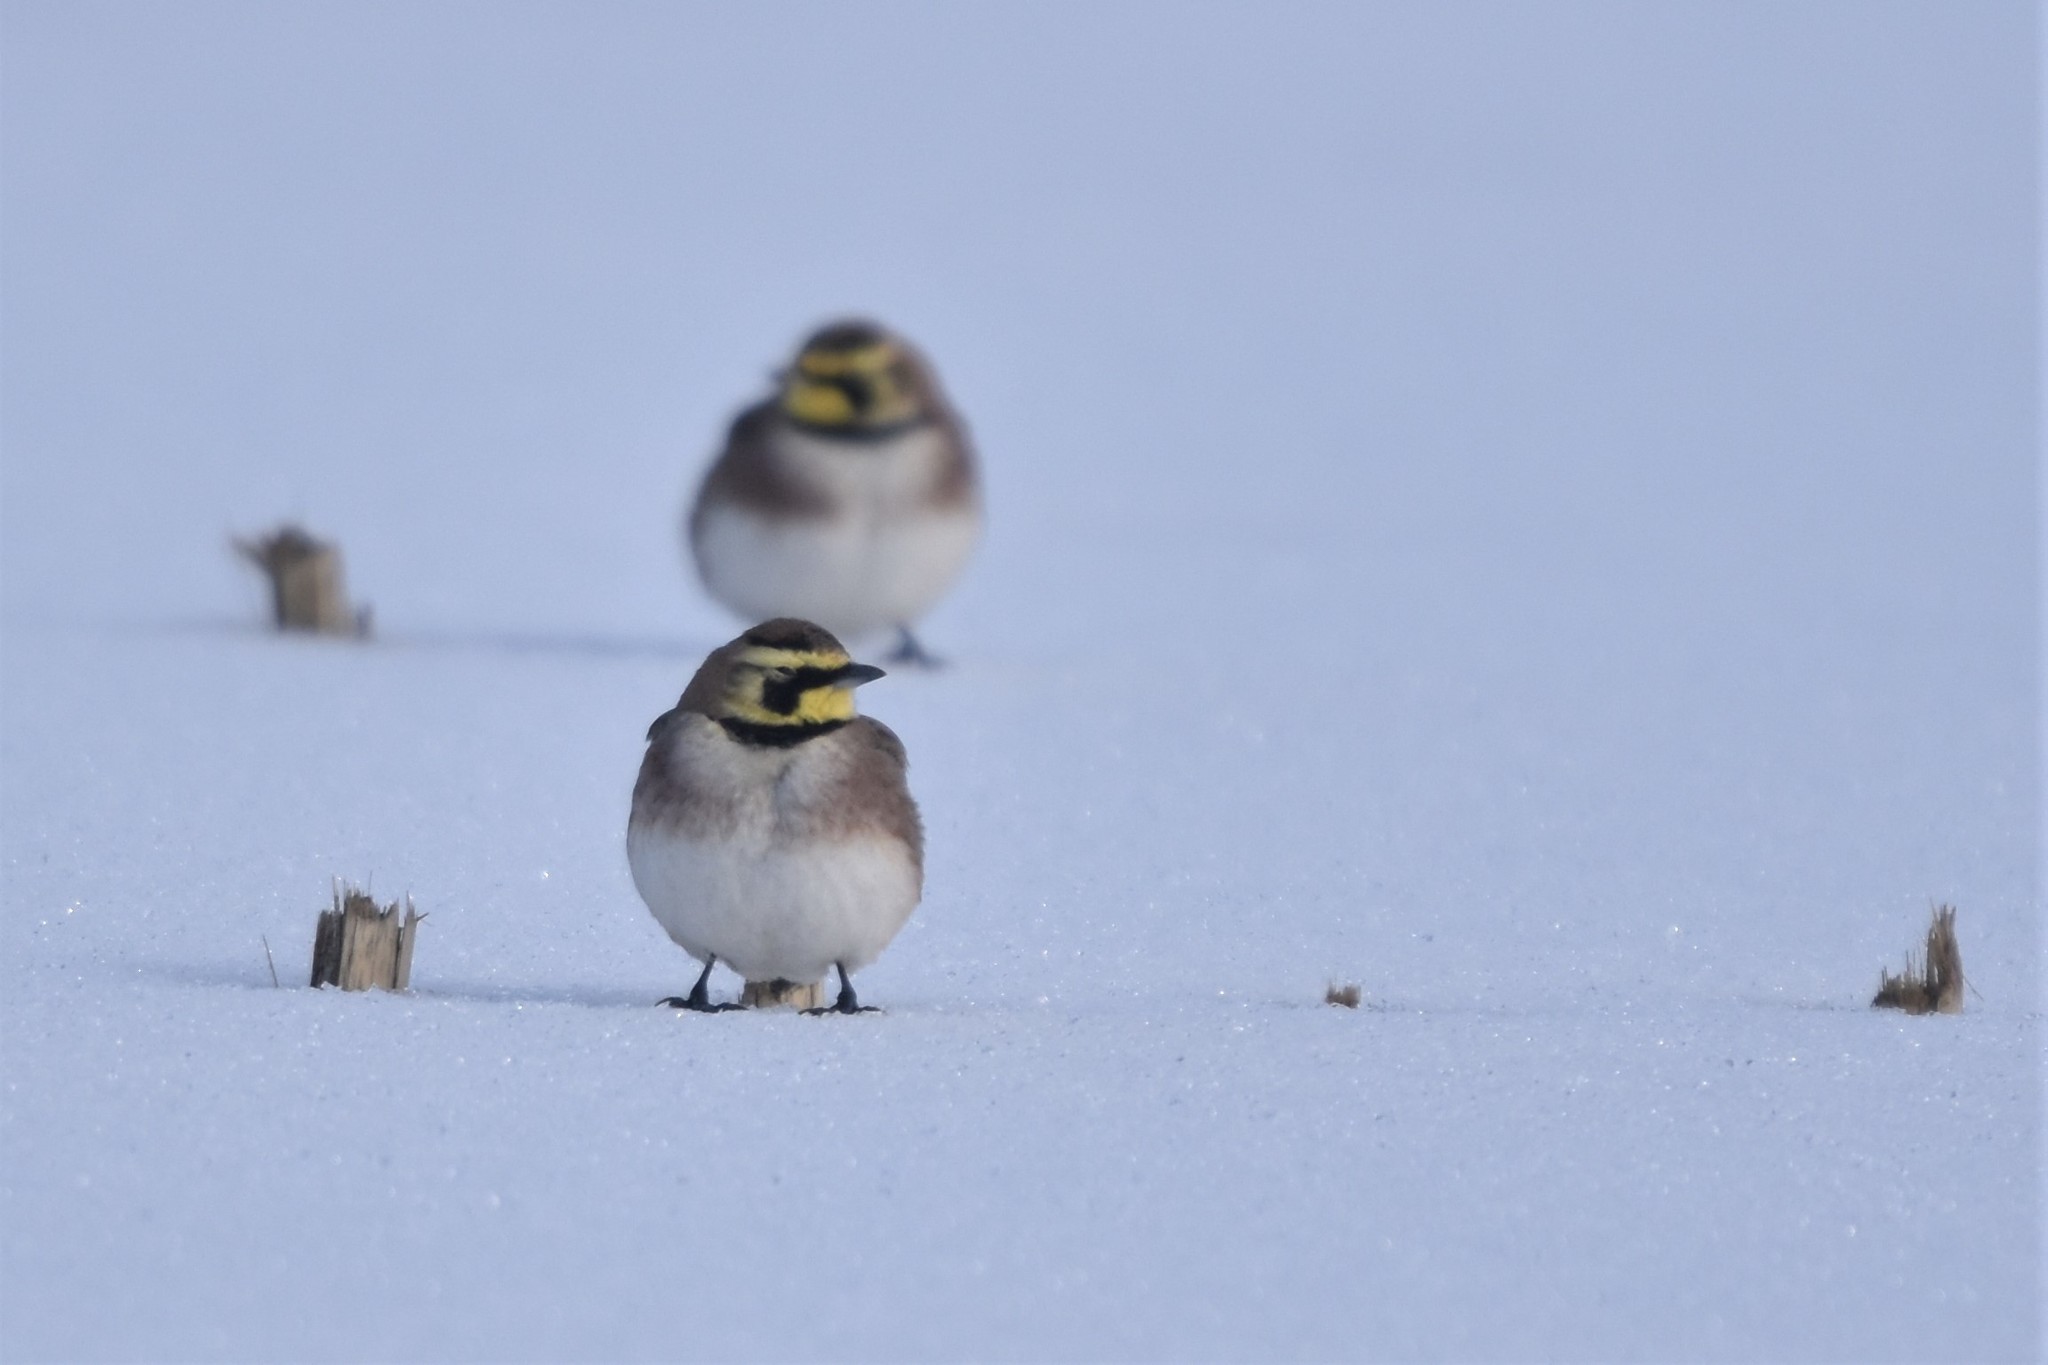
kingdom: Animalia
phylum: Chordata
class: Aves
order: Passeriformes
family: Alaudidae
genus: Eremophila
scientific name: Eremophila alpestris
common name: Horned lark
